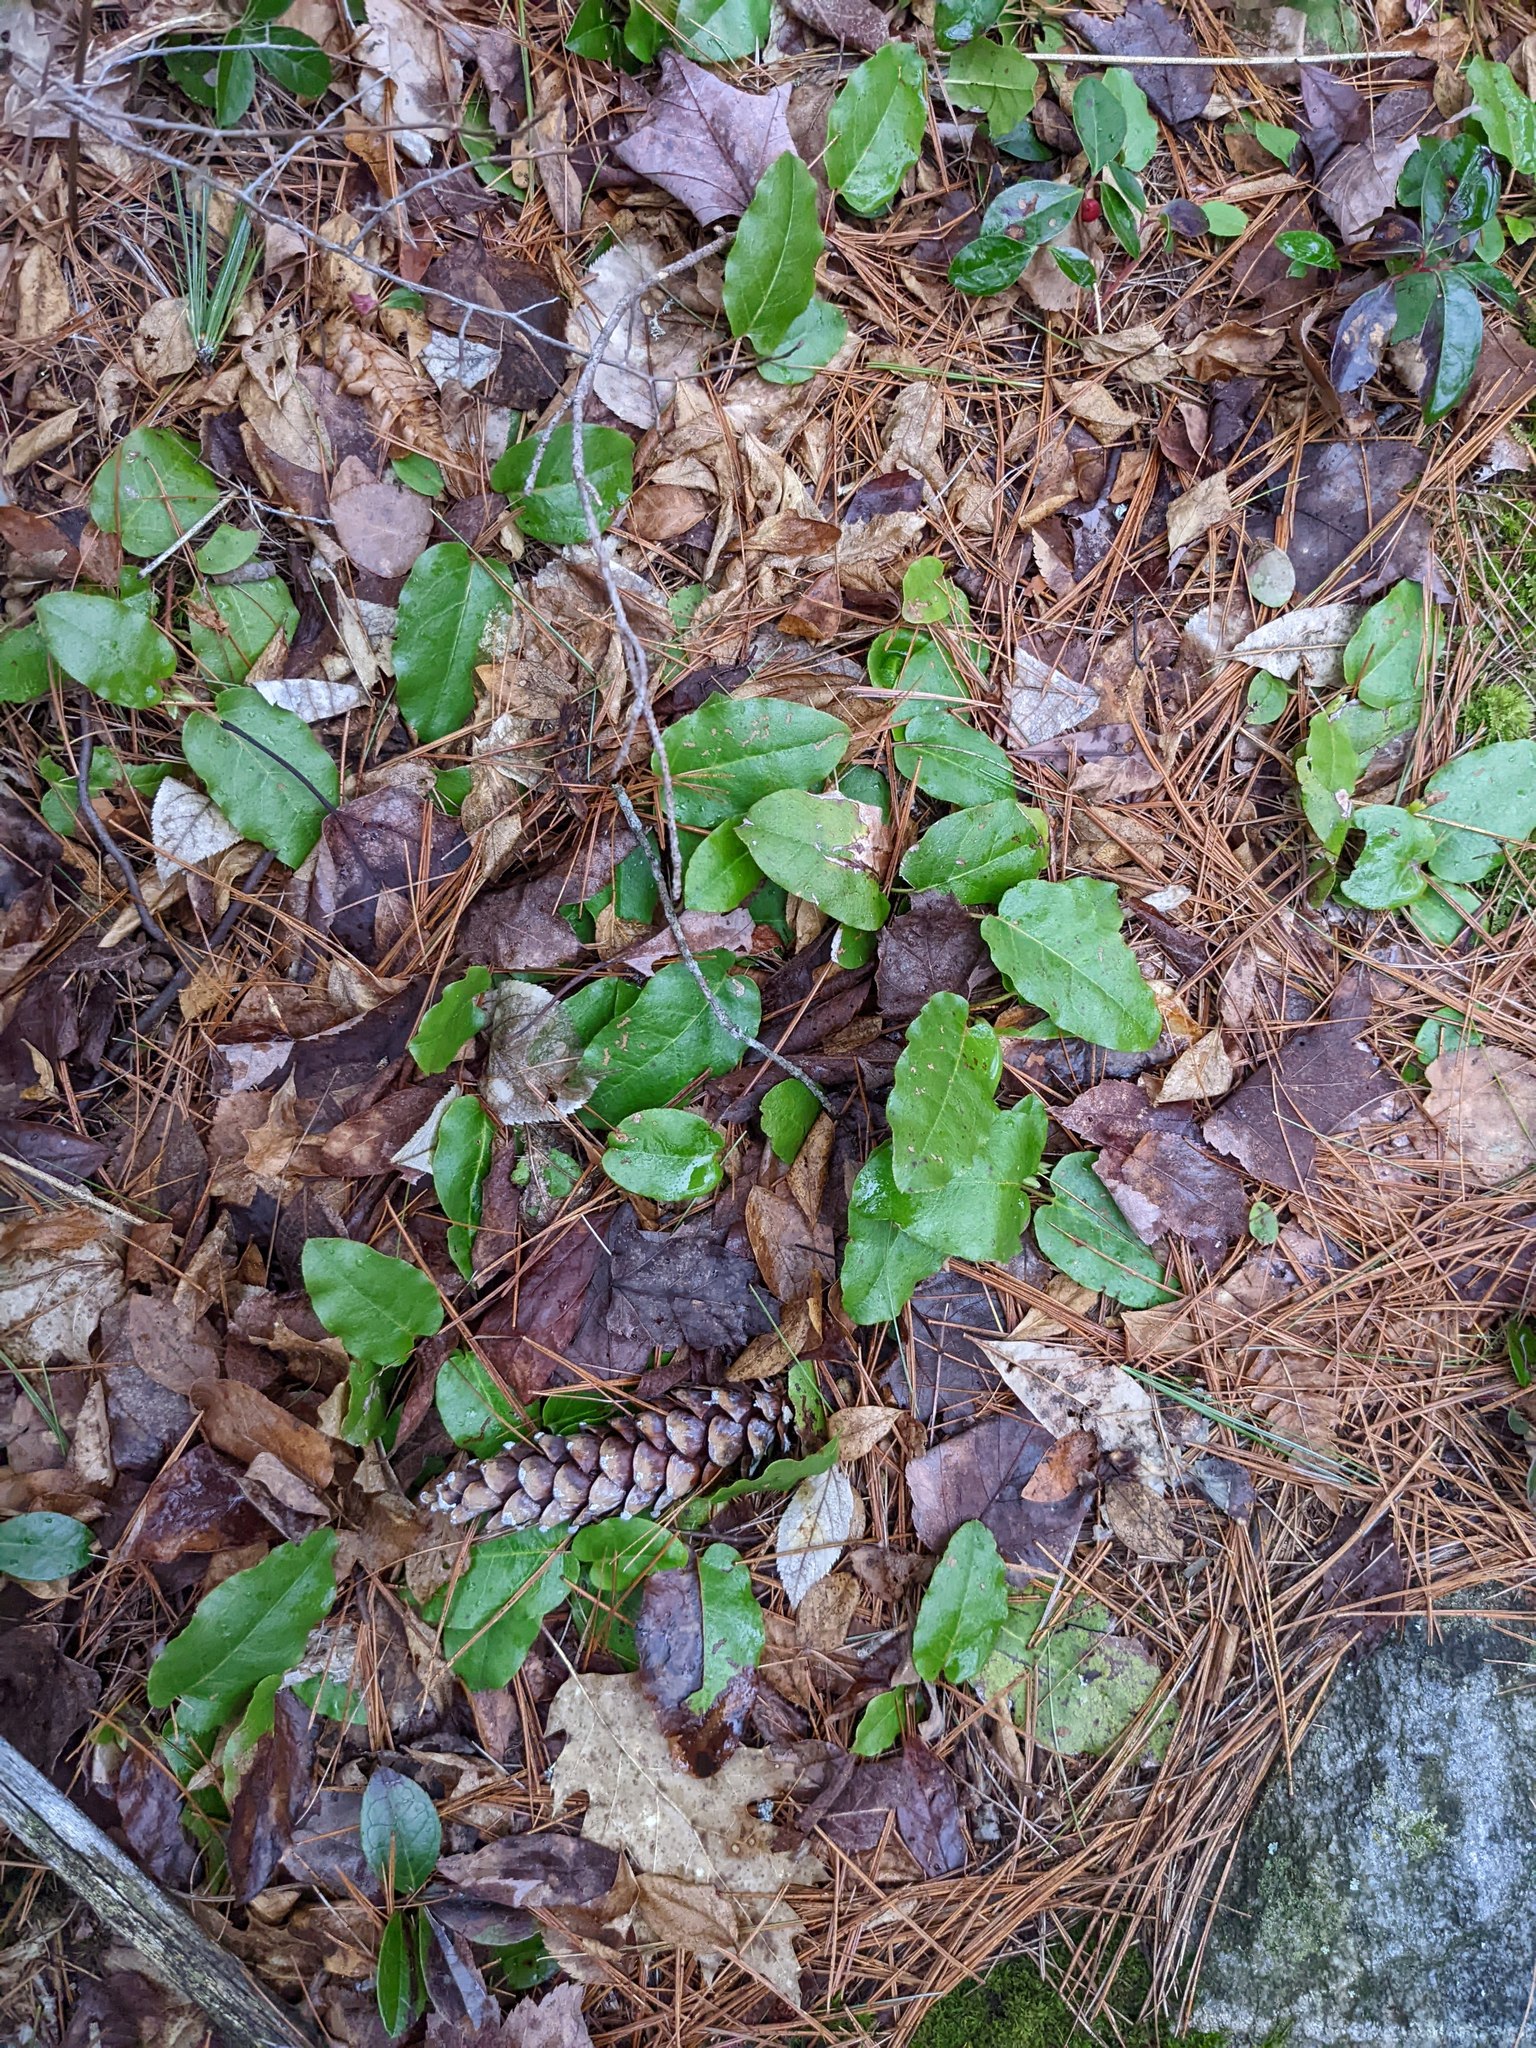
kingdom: Plantae
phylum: Tracheophyta
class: Pinopsida
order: Pinales
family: Pinaceae
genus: Pinus
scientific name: Pinus strobus
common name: Weymouth pine
